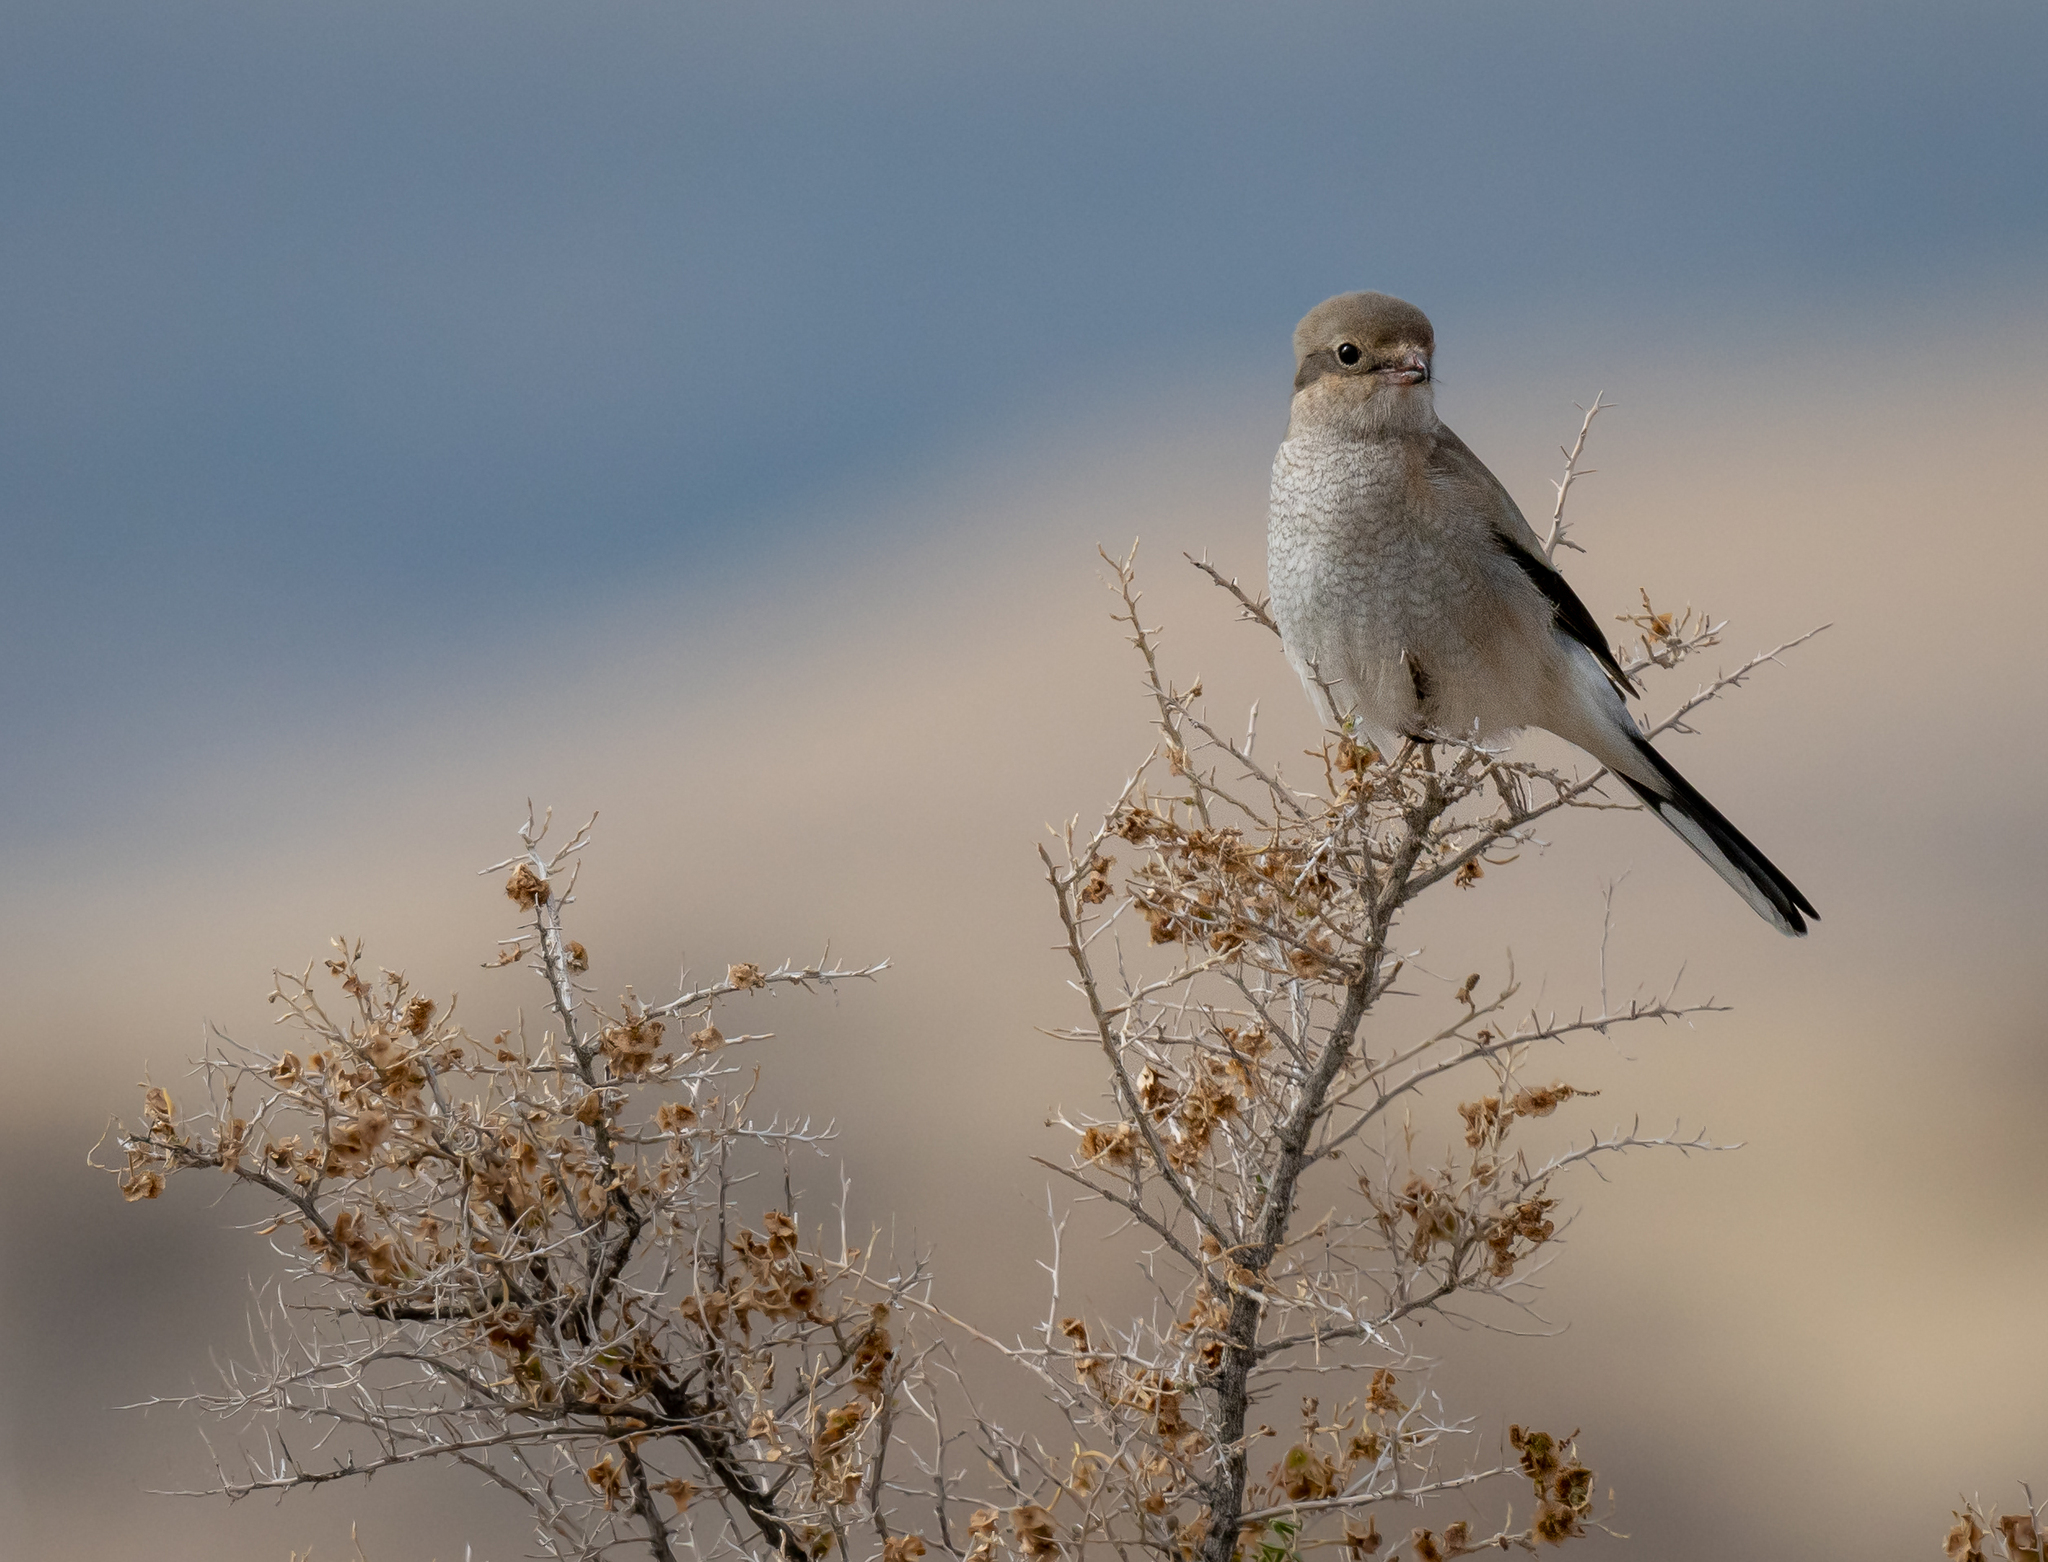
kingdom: Animalia
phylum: Chordata
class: Aves
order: Passeriformes
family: Laniidae
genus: Lanius
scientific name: Lanius borealis
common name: Northern shrike
